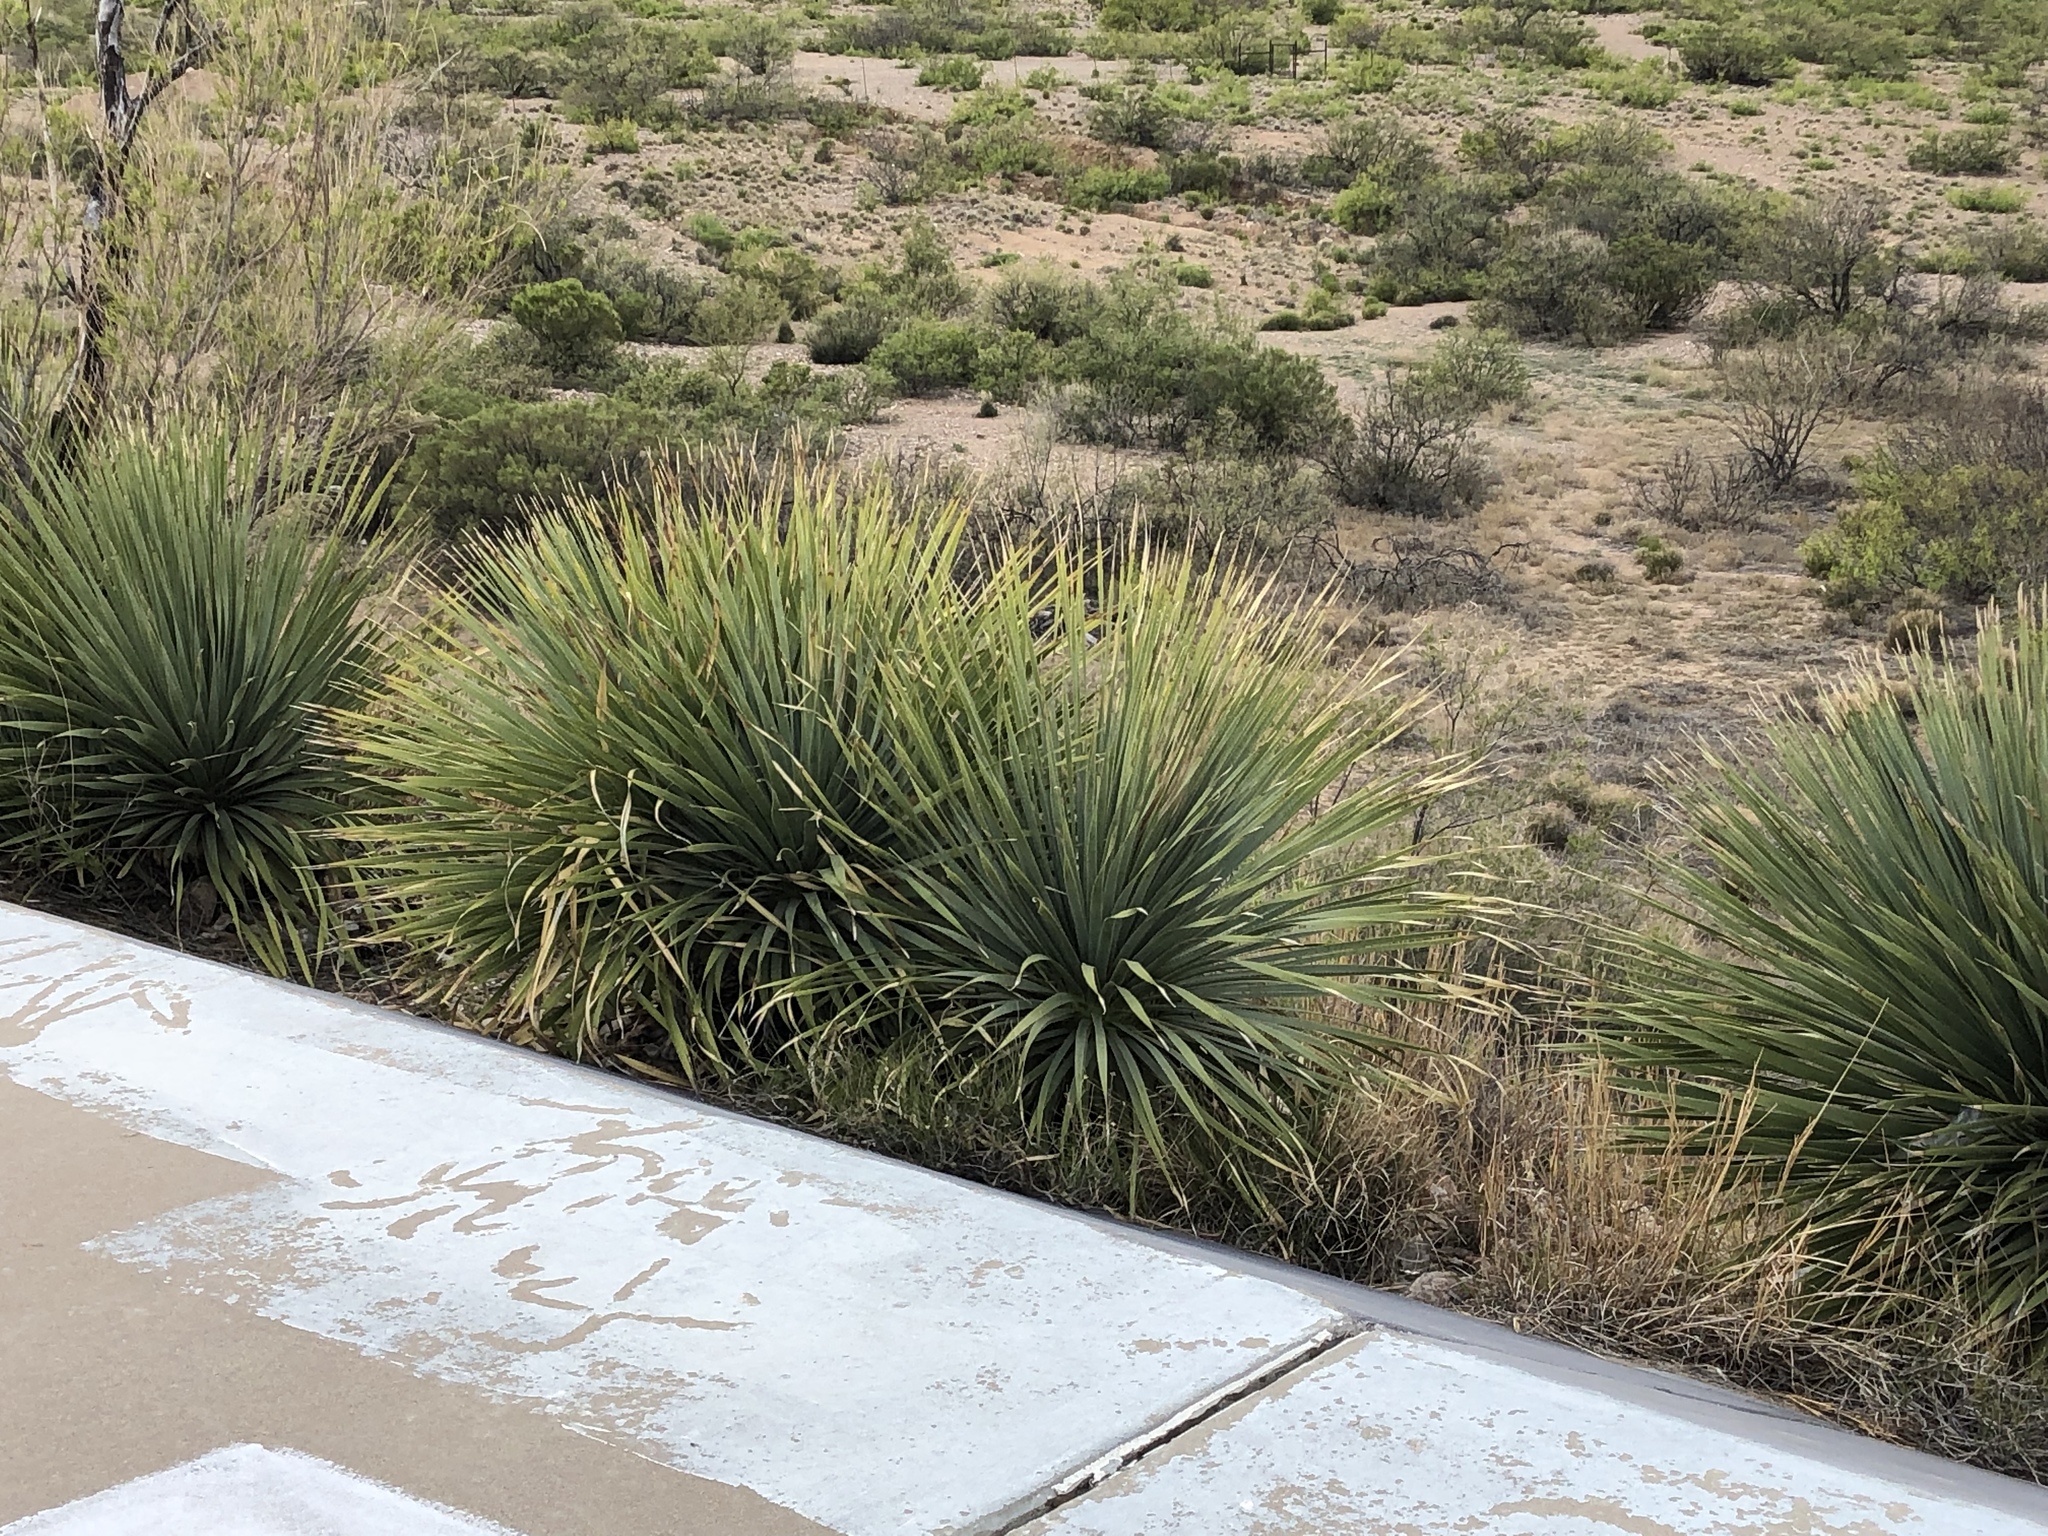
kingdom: Plantae
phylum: Tracheophyta
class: Liliopsida
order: Asparagales
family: Asparagaceae
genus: Dasylirion
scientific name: Dasylirion wheeleri
